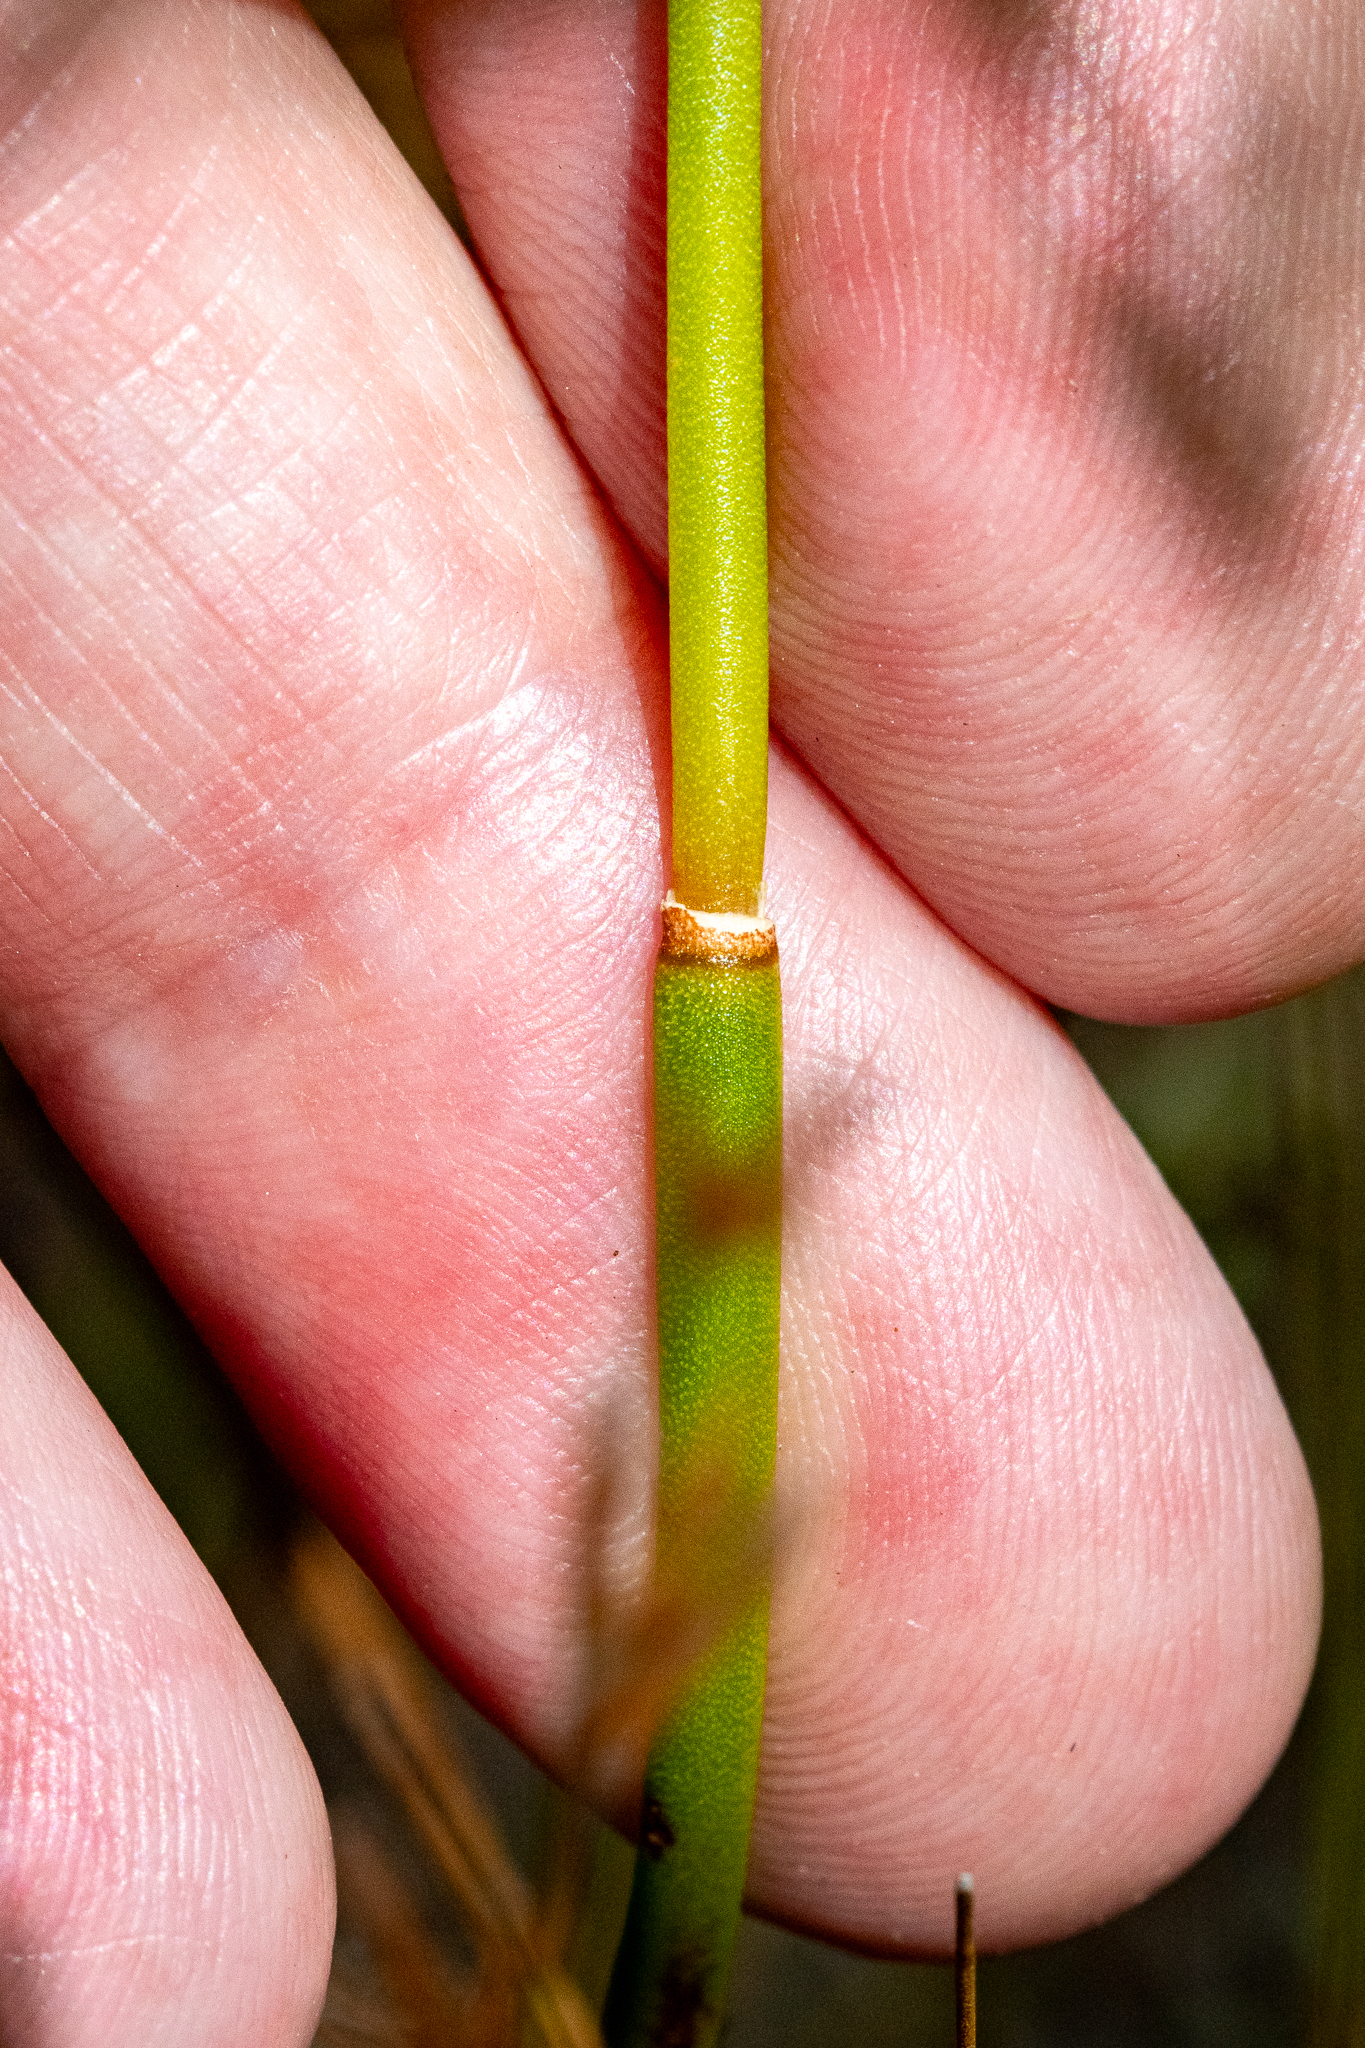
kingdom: Plantae
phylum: Tracheophyta
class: Liliopsida
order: Poales
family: Restionaceae
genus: Elegia
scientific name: Elegia cuspidata
